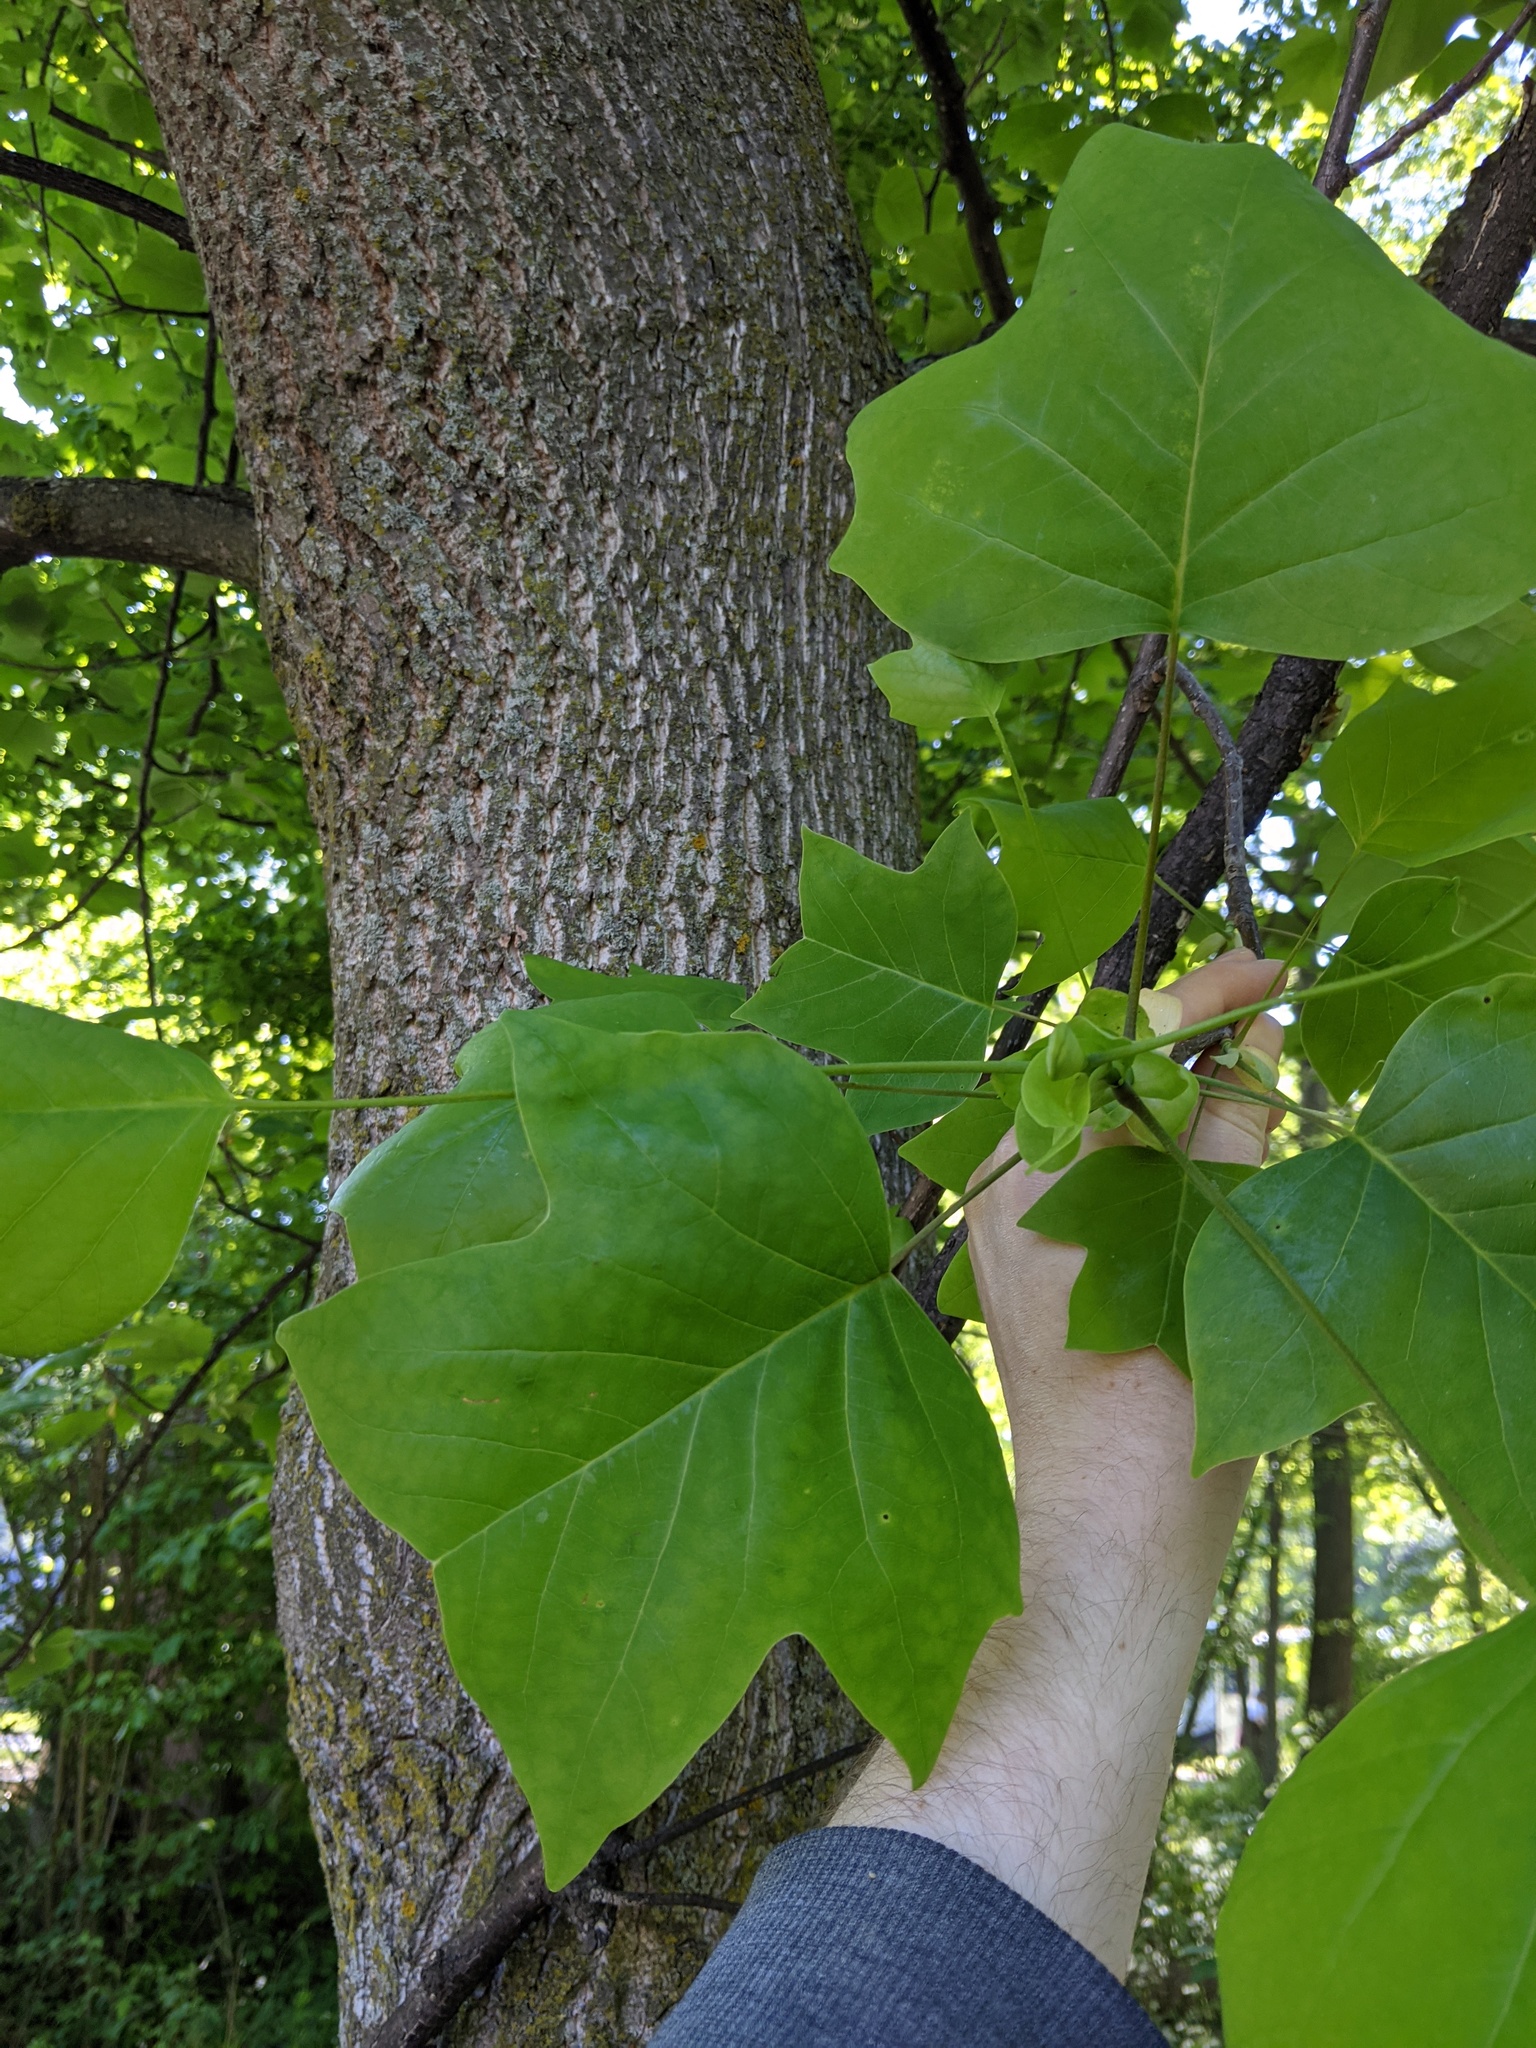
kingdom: Plantae
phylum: Tracheophyta
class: Magnoliopsida
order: Magnoliales
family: Magnoliaceae
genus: Liriodendron
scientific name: Liriodendron tulipifera
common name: Tulip tree
